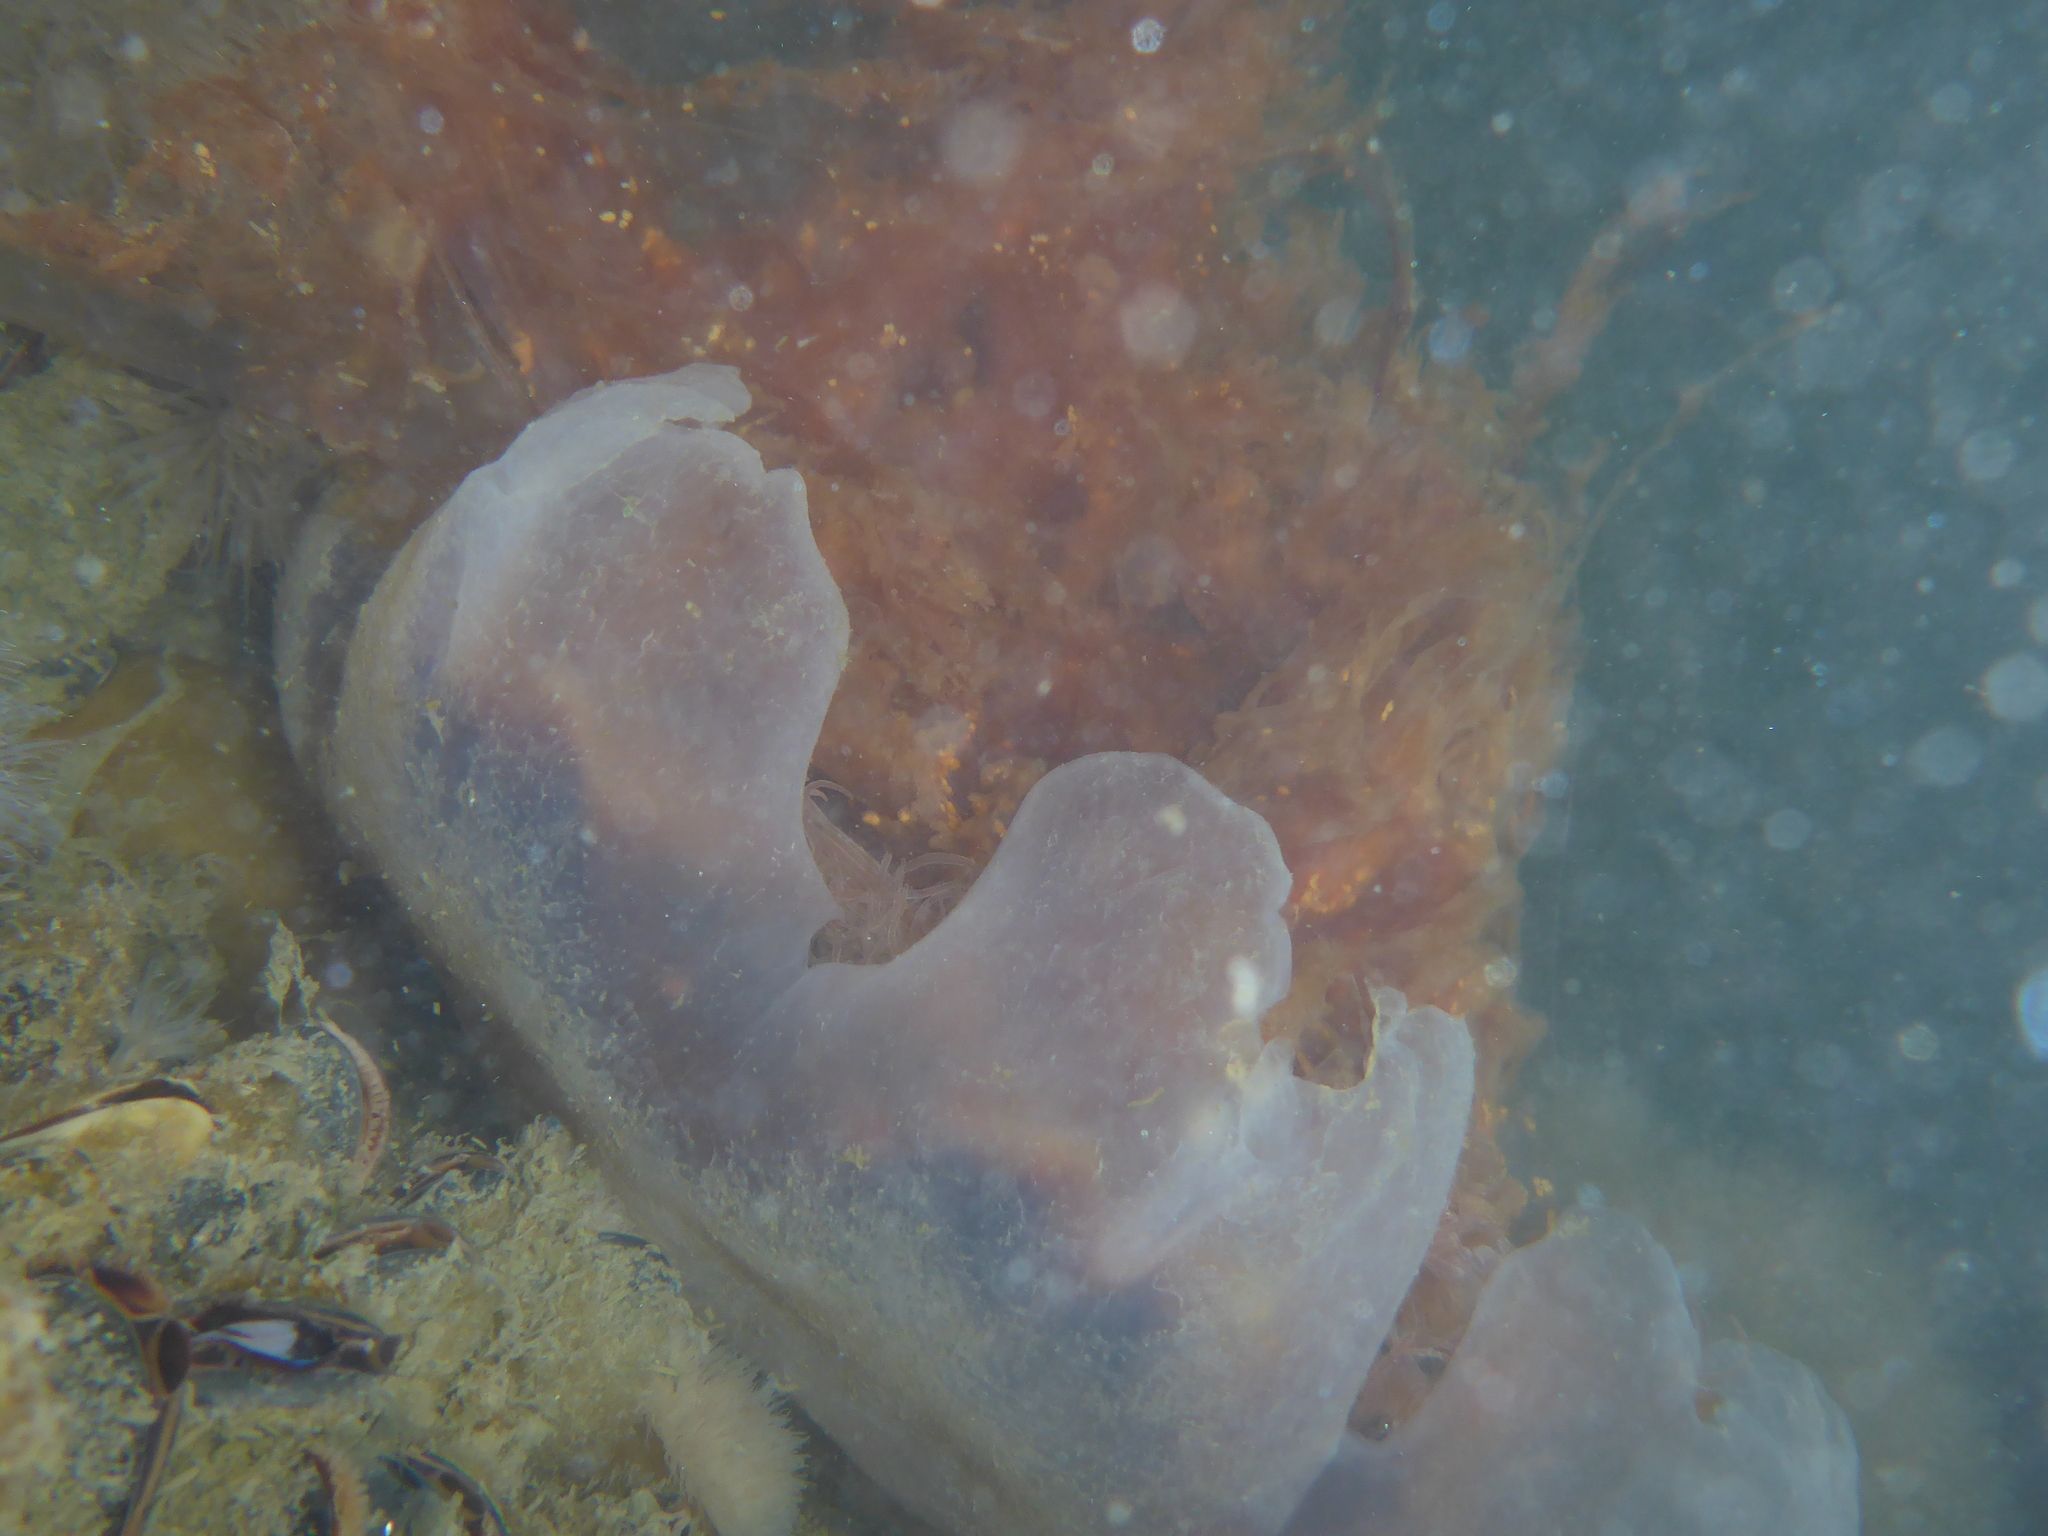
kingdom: Animalia
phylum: Cnidaria
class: Scyphozoa
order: Semaeostomeae
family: Cyaneidae
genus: Cyanea
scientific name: Cyanea ferruginea
